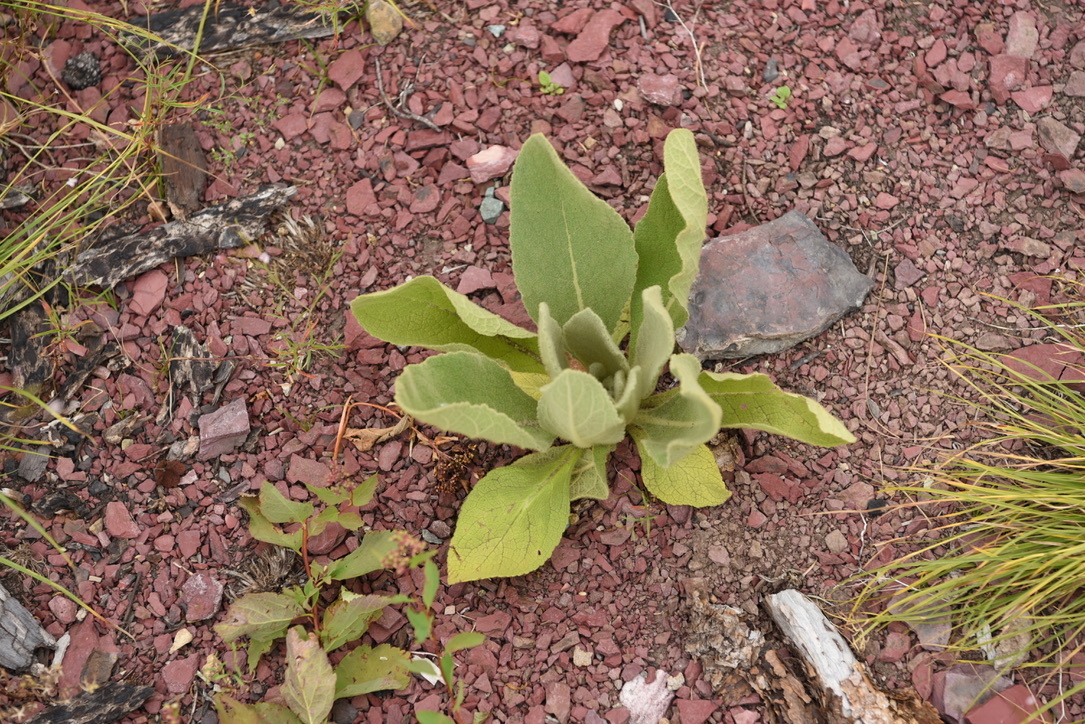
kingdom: Plantae
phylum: Tracheophyta
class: Magnoliopsida
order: Lamiales
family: Scrophulariaceae
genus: Verbascum
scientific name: Verbascum thapsus
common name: Common mullein
